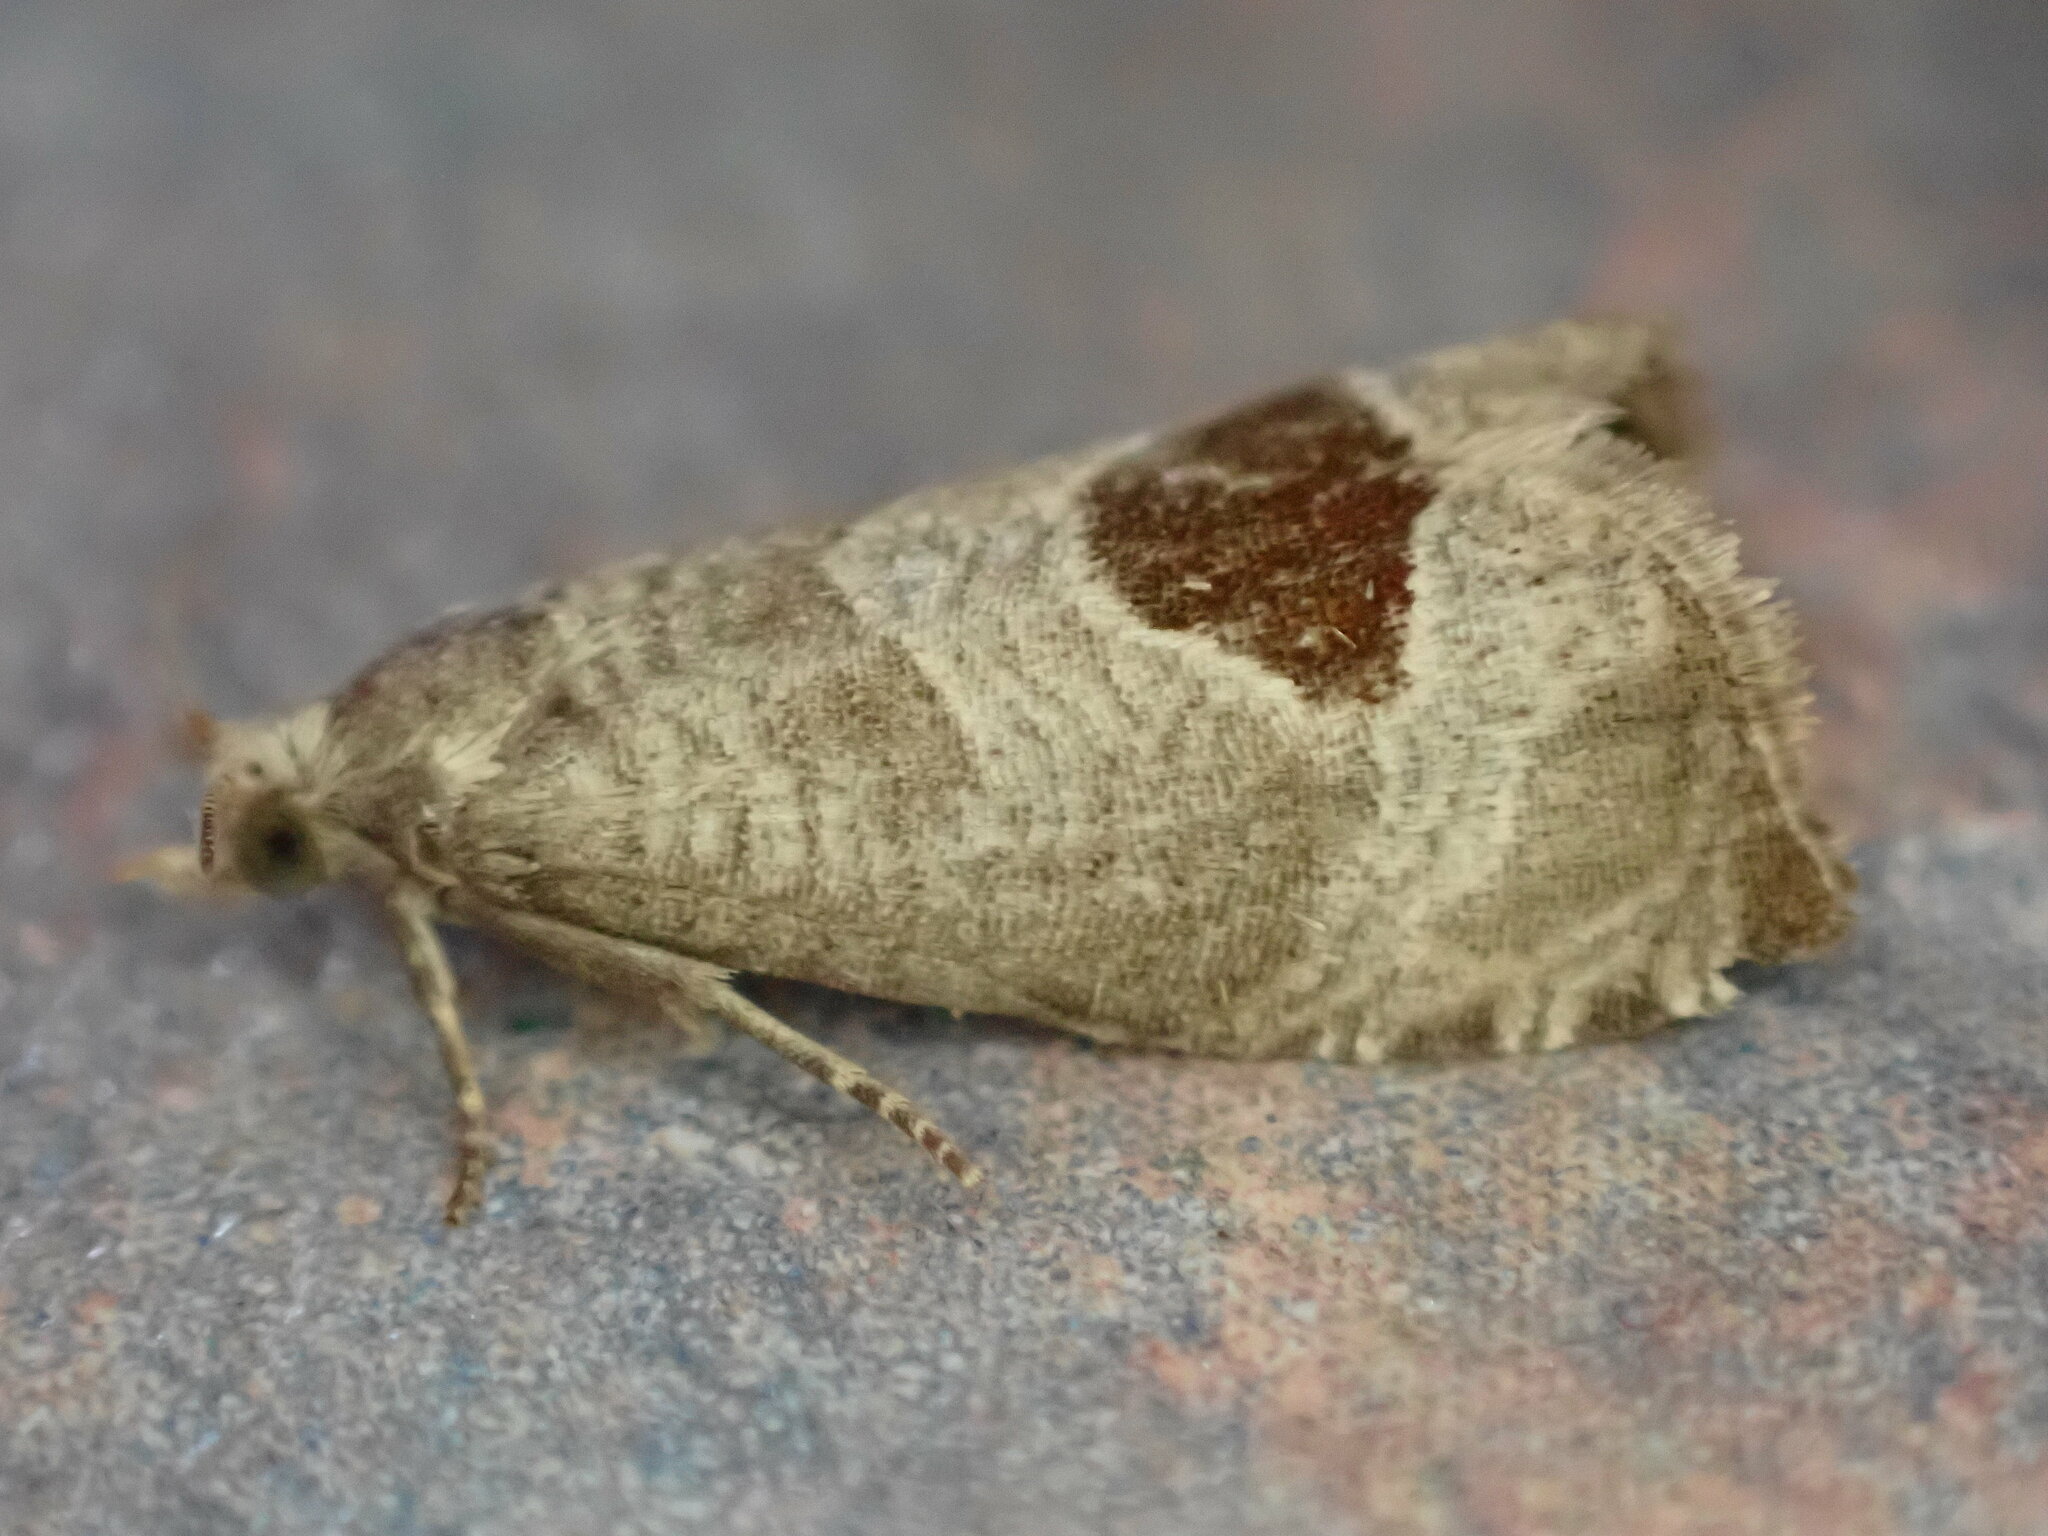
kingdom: Animalia
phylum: Arthropoda
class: Insecta
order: Lepidoptera
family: Tortricidae
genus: Notocelia
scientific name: Notocelia uddmanniana
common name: Bramble shoot moth
